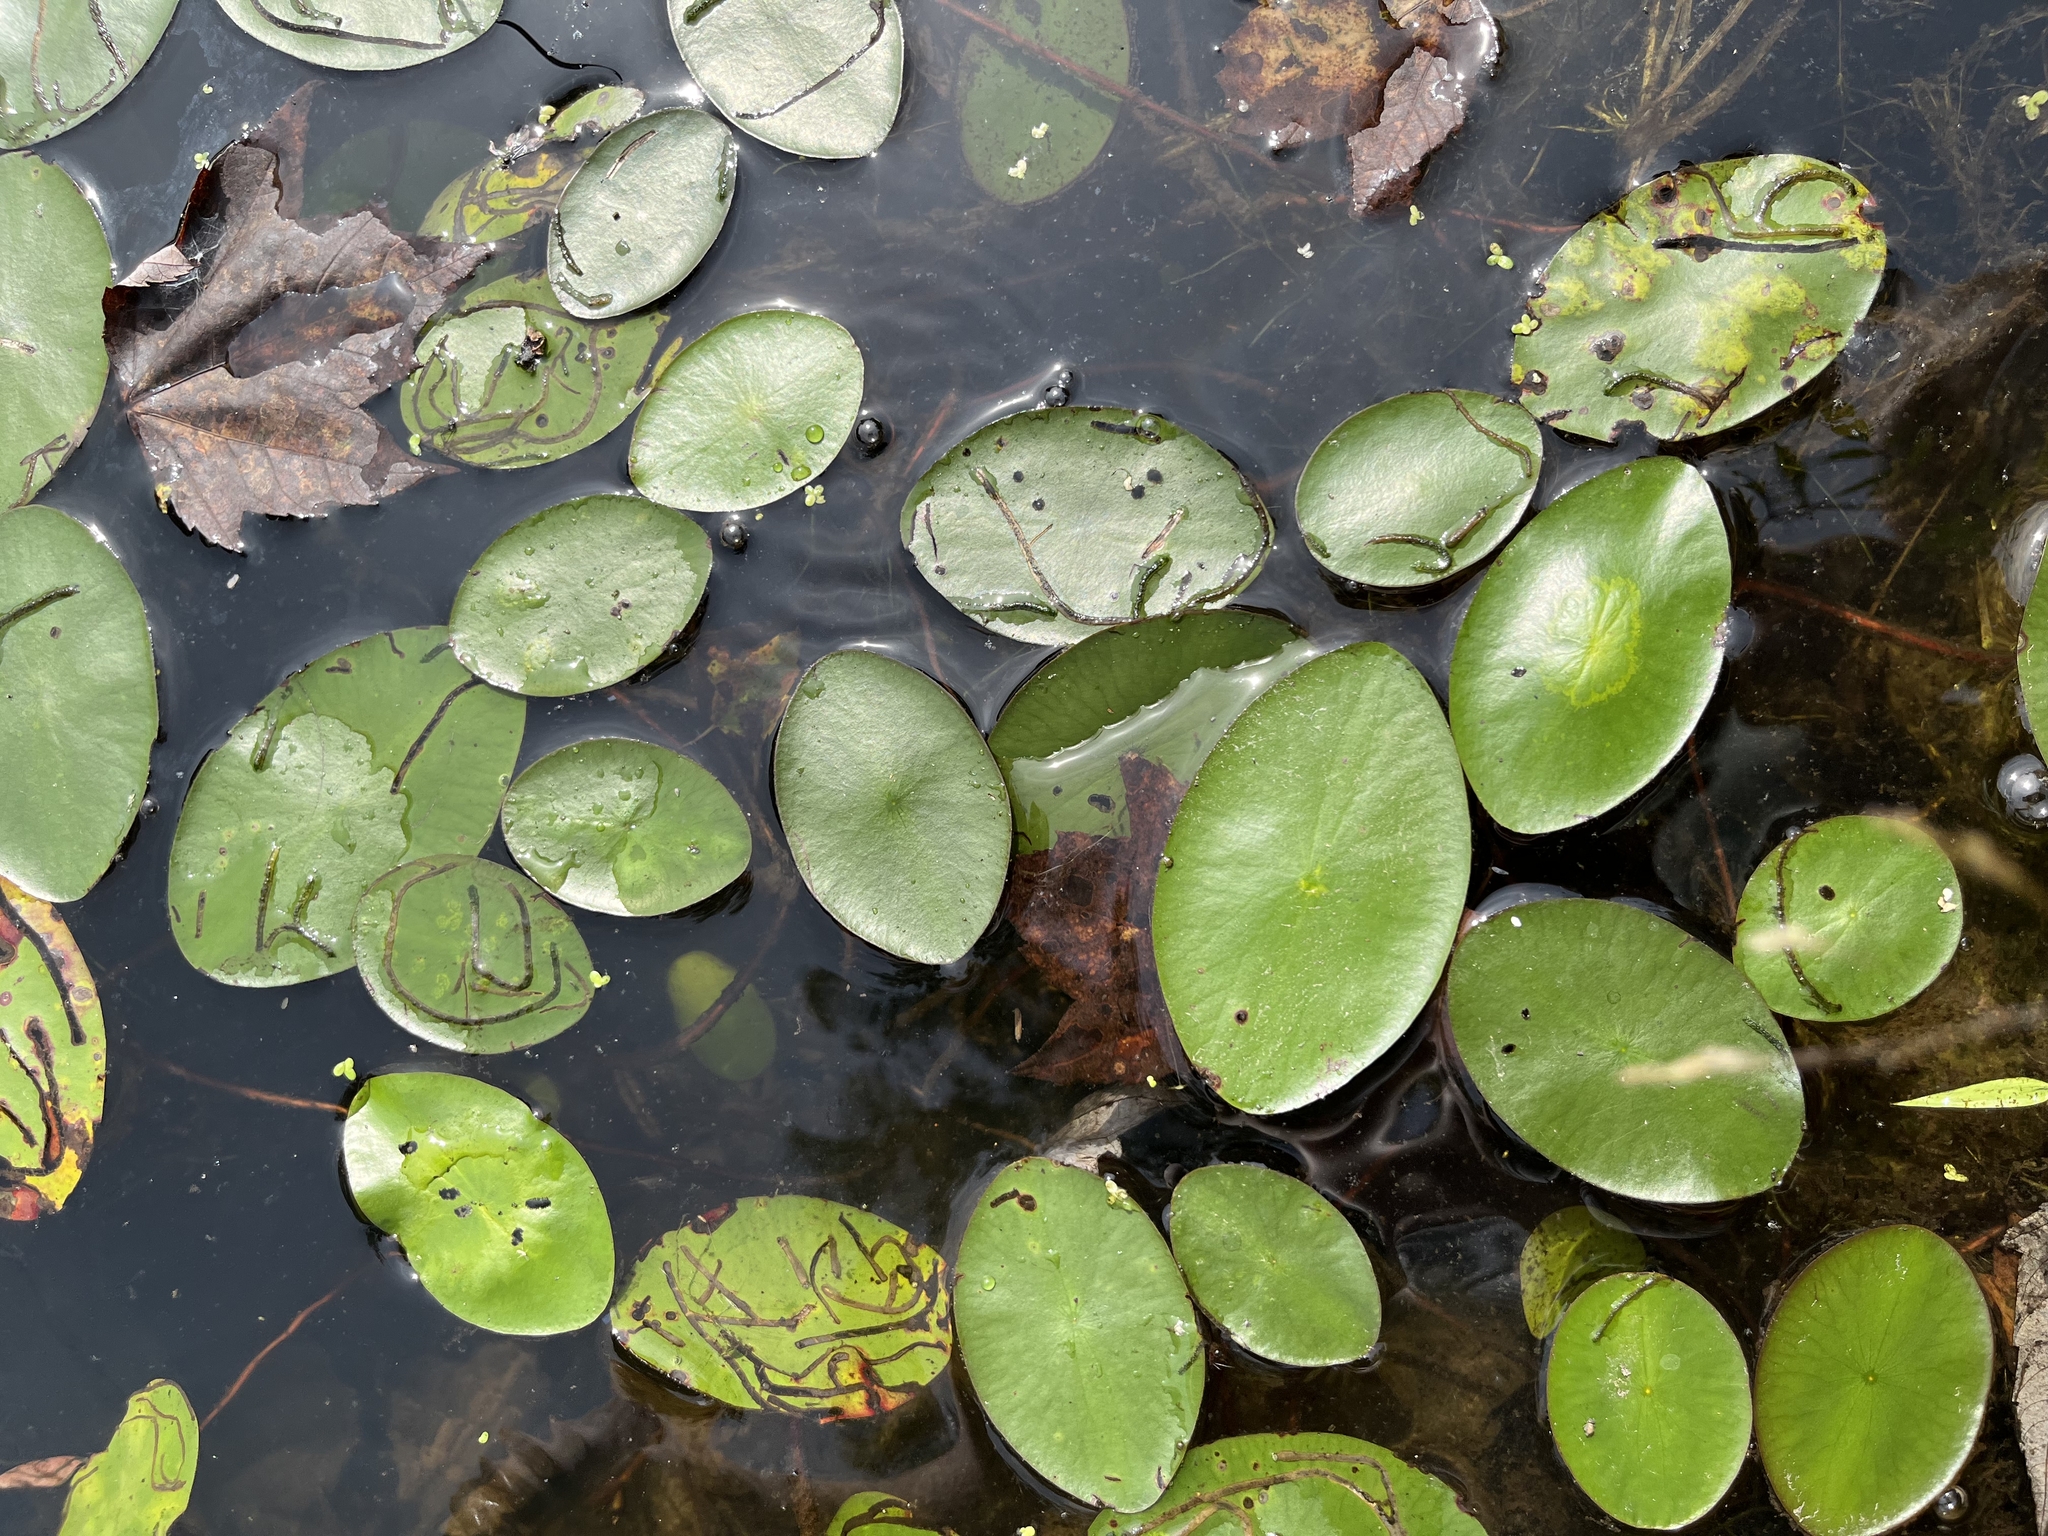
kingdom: Plantae
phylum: Tracheophyta
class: Magnoliopsida
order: Nymphaeales
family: Cabombaceae
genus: Brasenia
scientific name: Brasenia schreberi
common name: Water-shield
